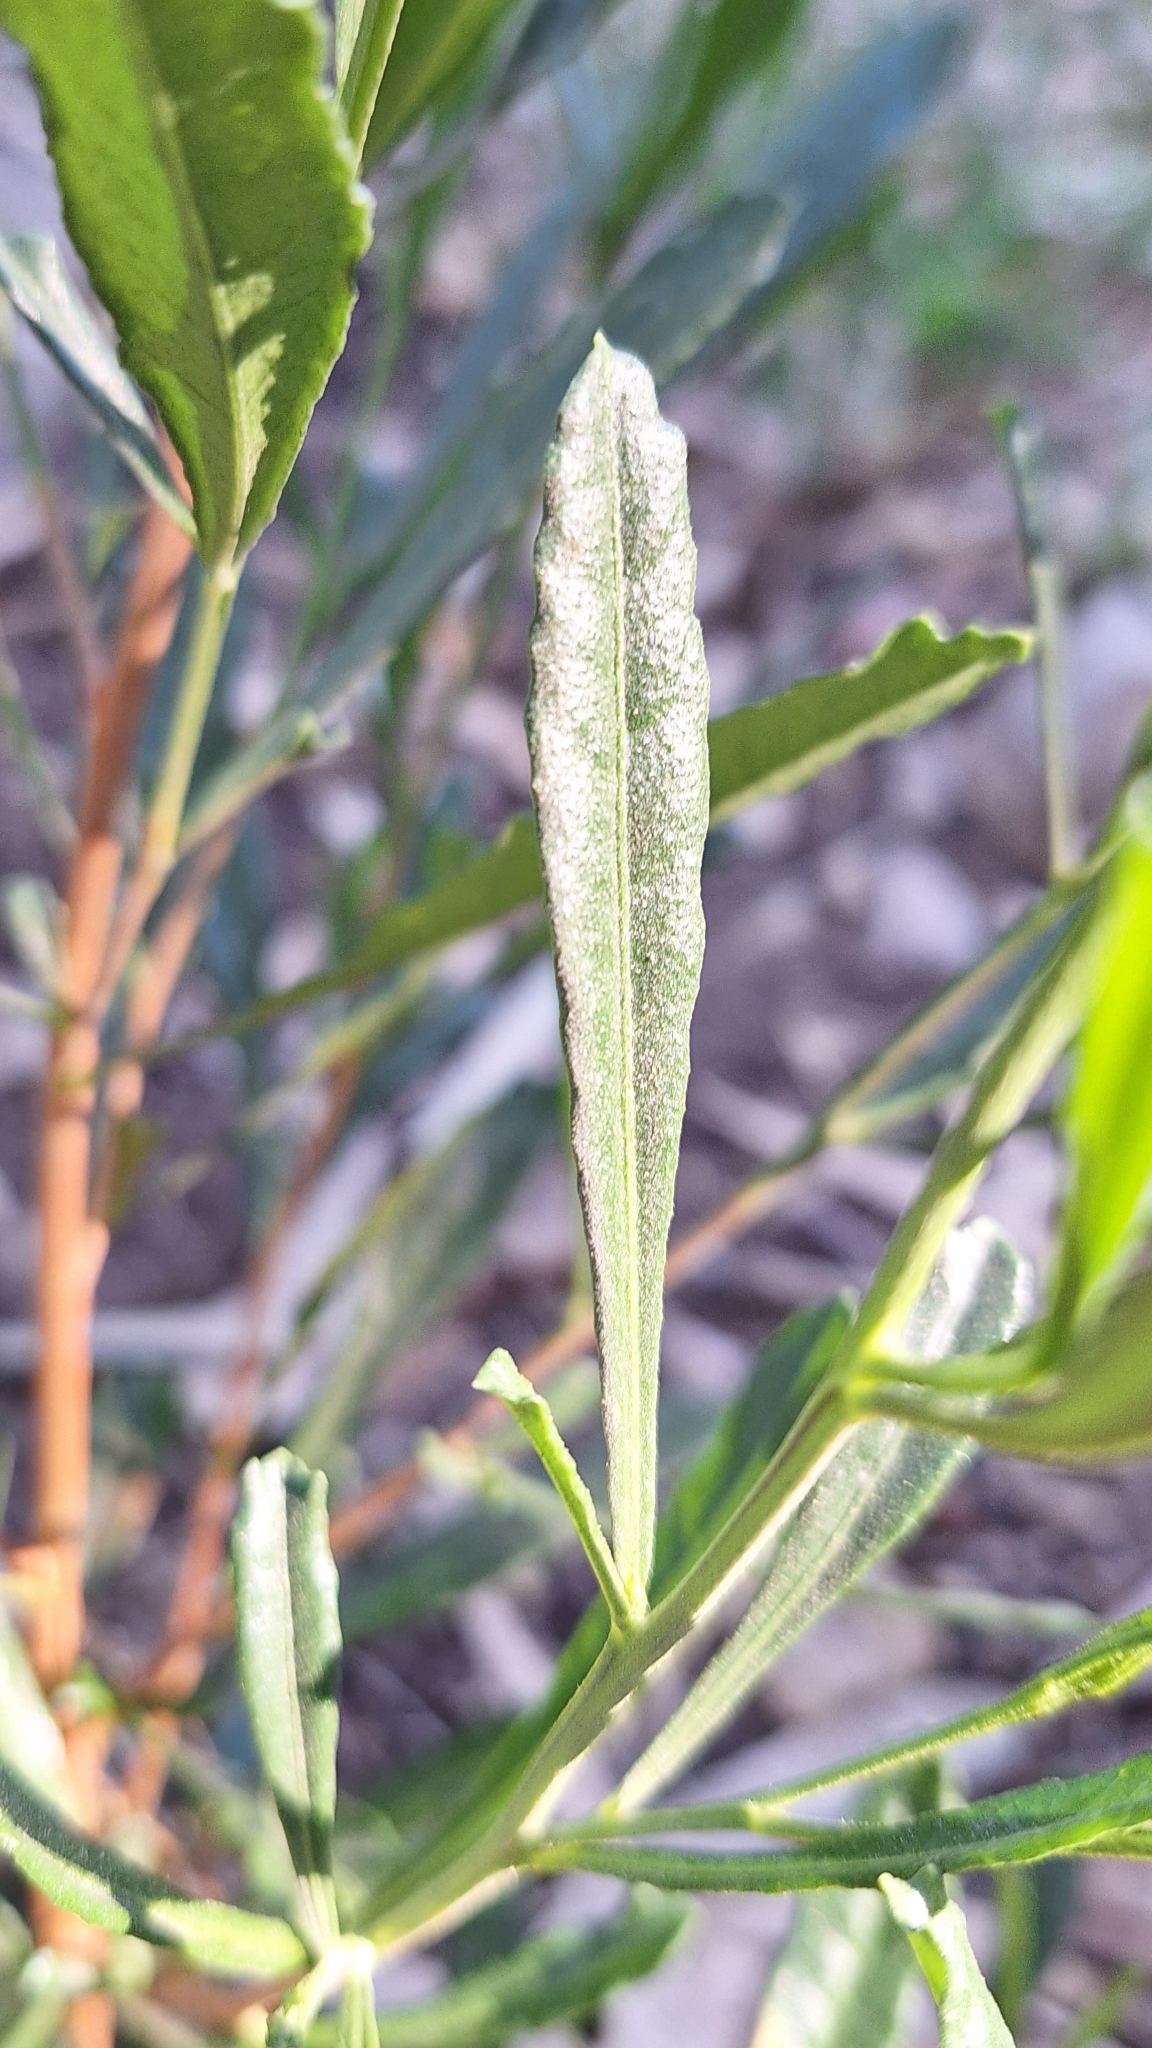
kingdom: Plantae
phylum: Tracheophyta
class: Magnoliopsida
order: Sapindales
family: Sapindaceae
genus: Dodonaea
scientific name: Dodonaea viscosa
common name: Hopbush
